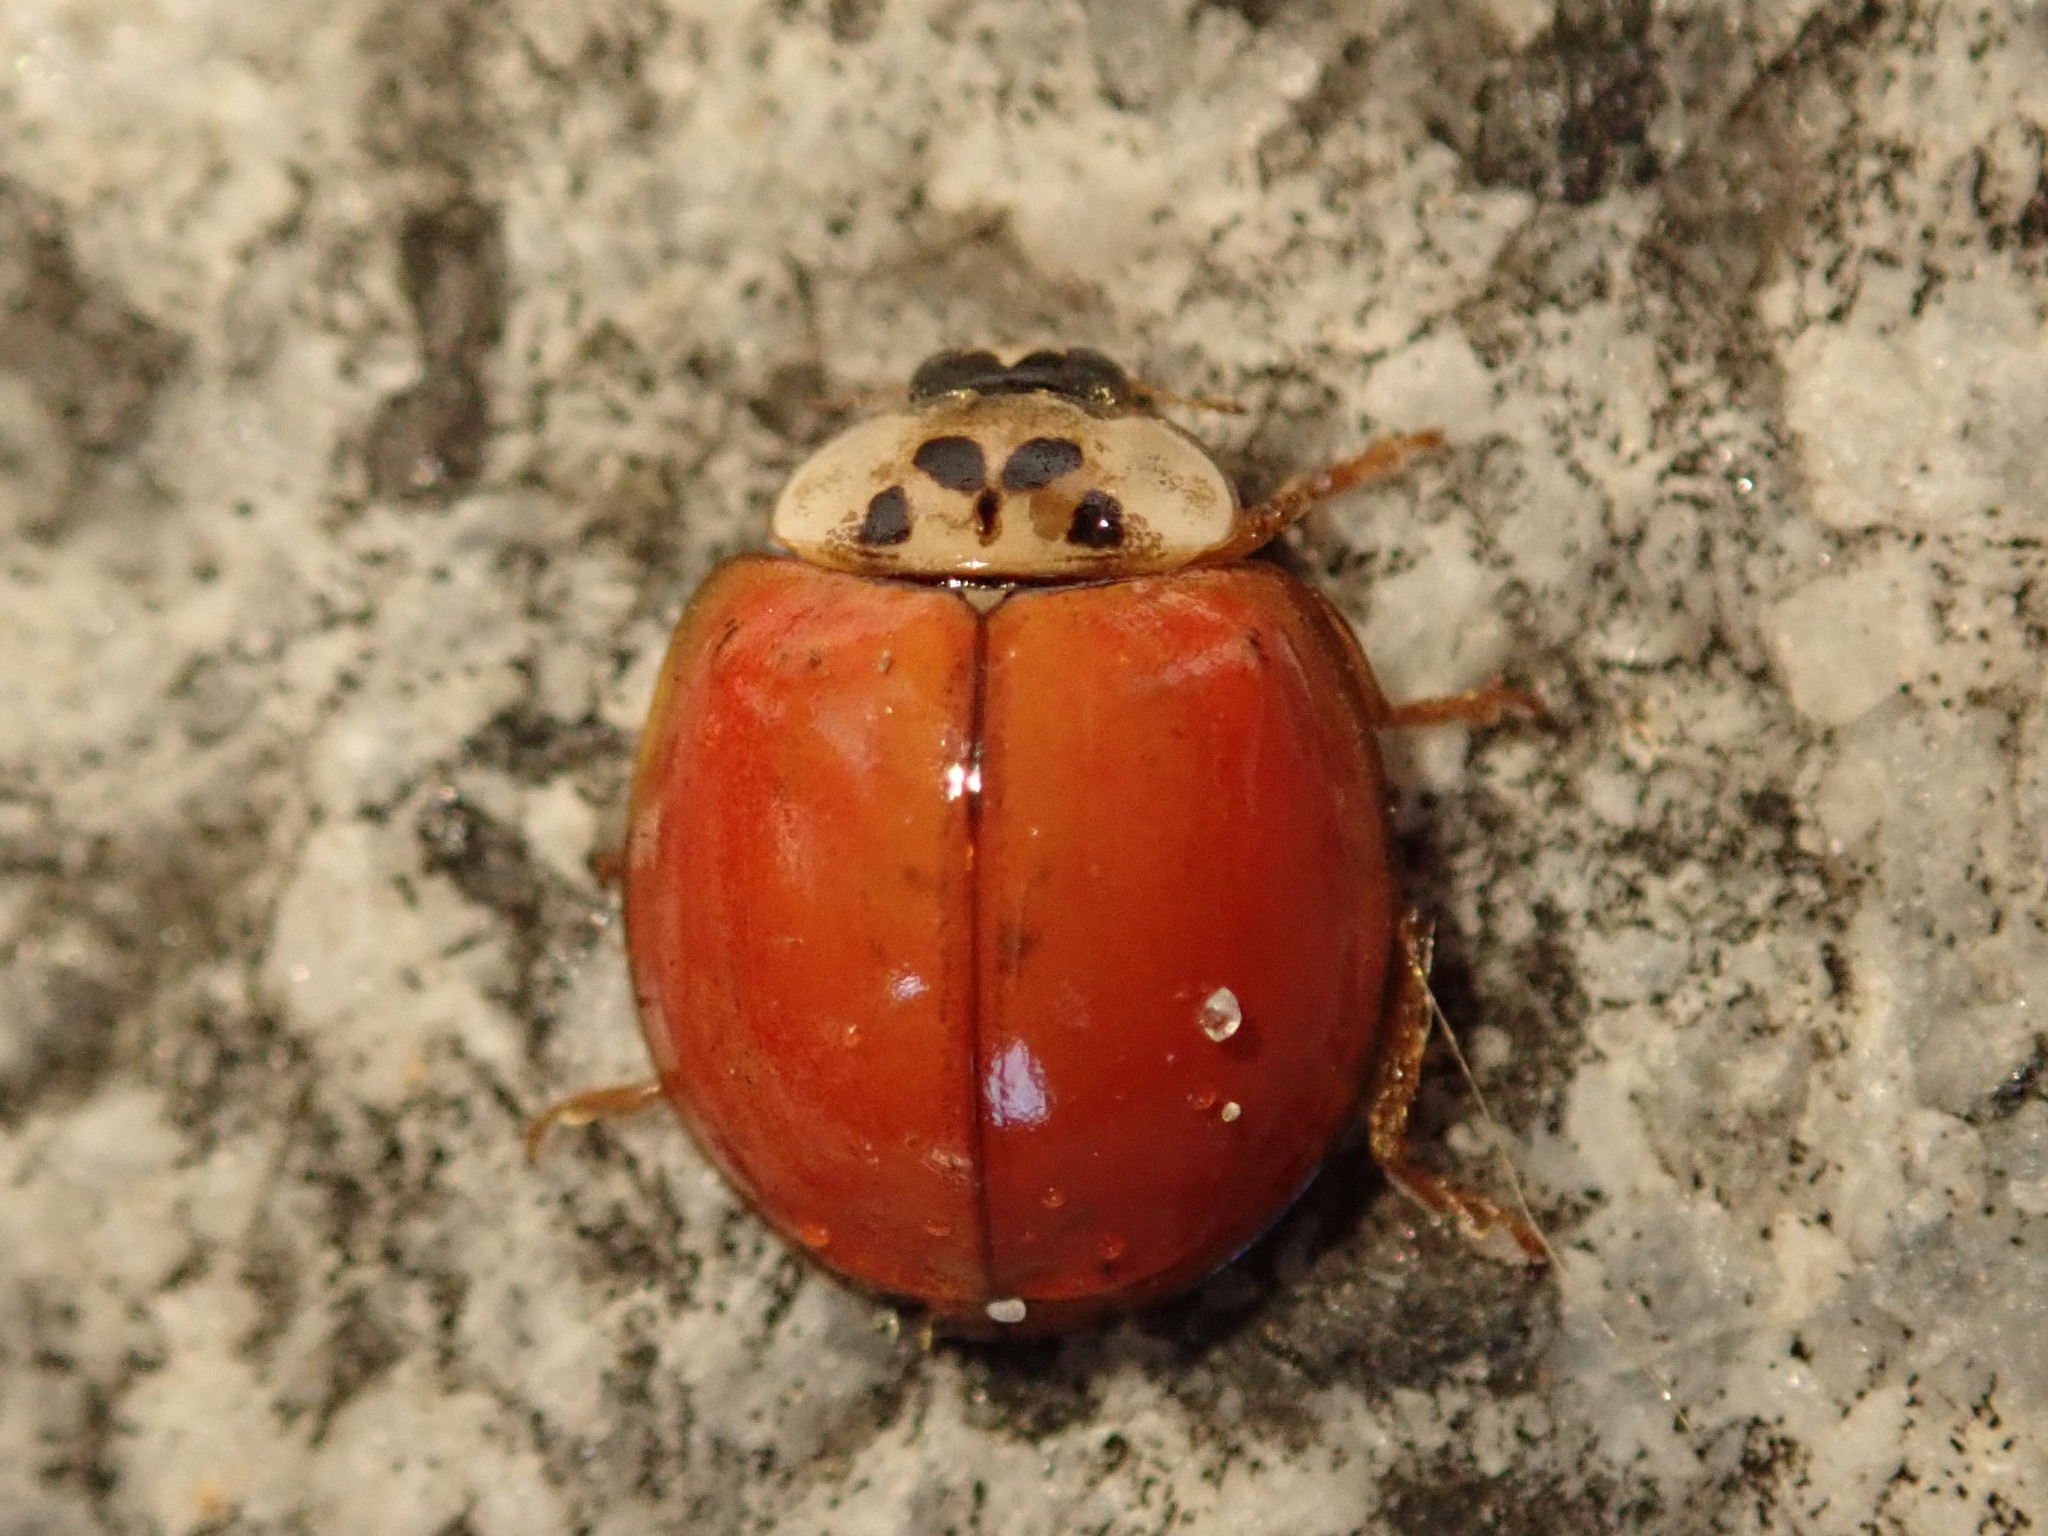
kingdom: Animalia
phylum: Arthropoda
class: Insecta
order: Coleoptera
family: Coccinellidae
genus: Harmonia
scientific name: Harmonia axyridis
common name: Harlequin ladybird
